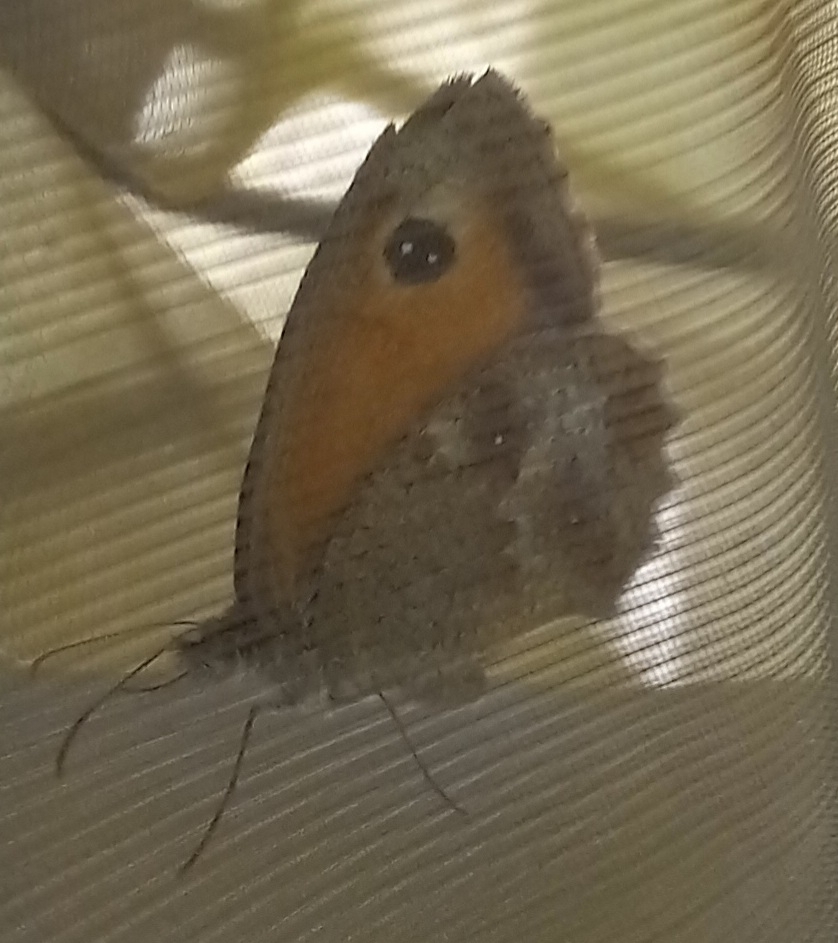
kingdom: Animalia
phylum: Arthropoda
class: Insecta
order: Lepidoptera
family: Nymphalidae
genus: Pyronia
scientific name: Pyronia tithonus
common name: Gatekeeper
